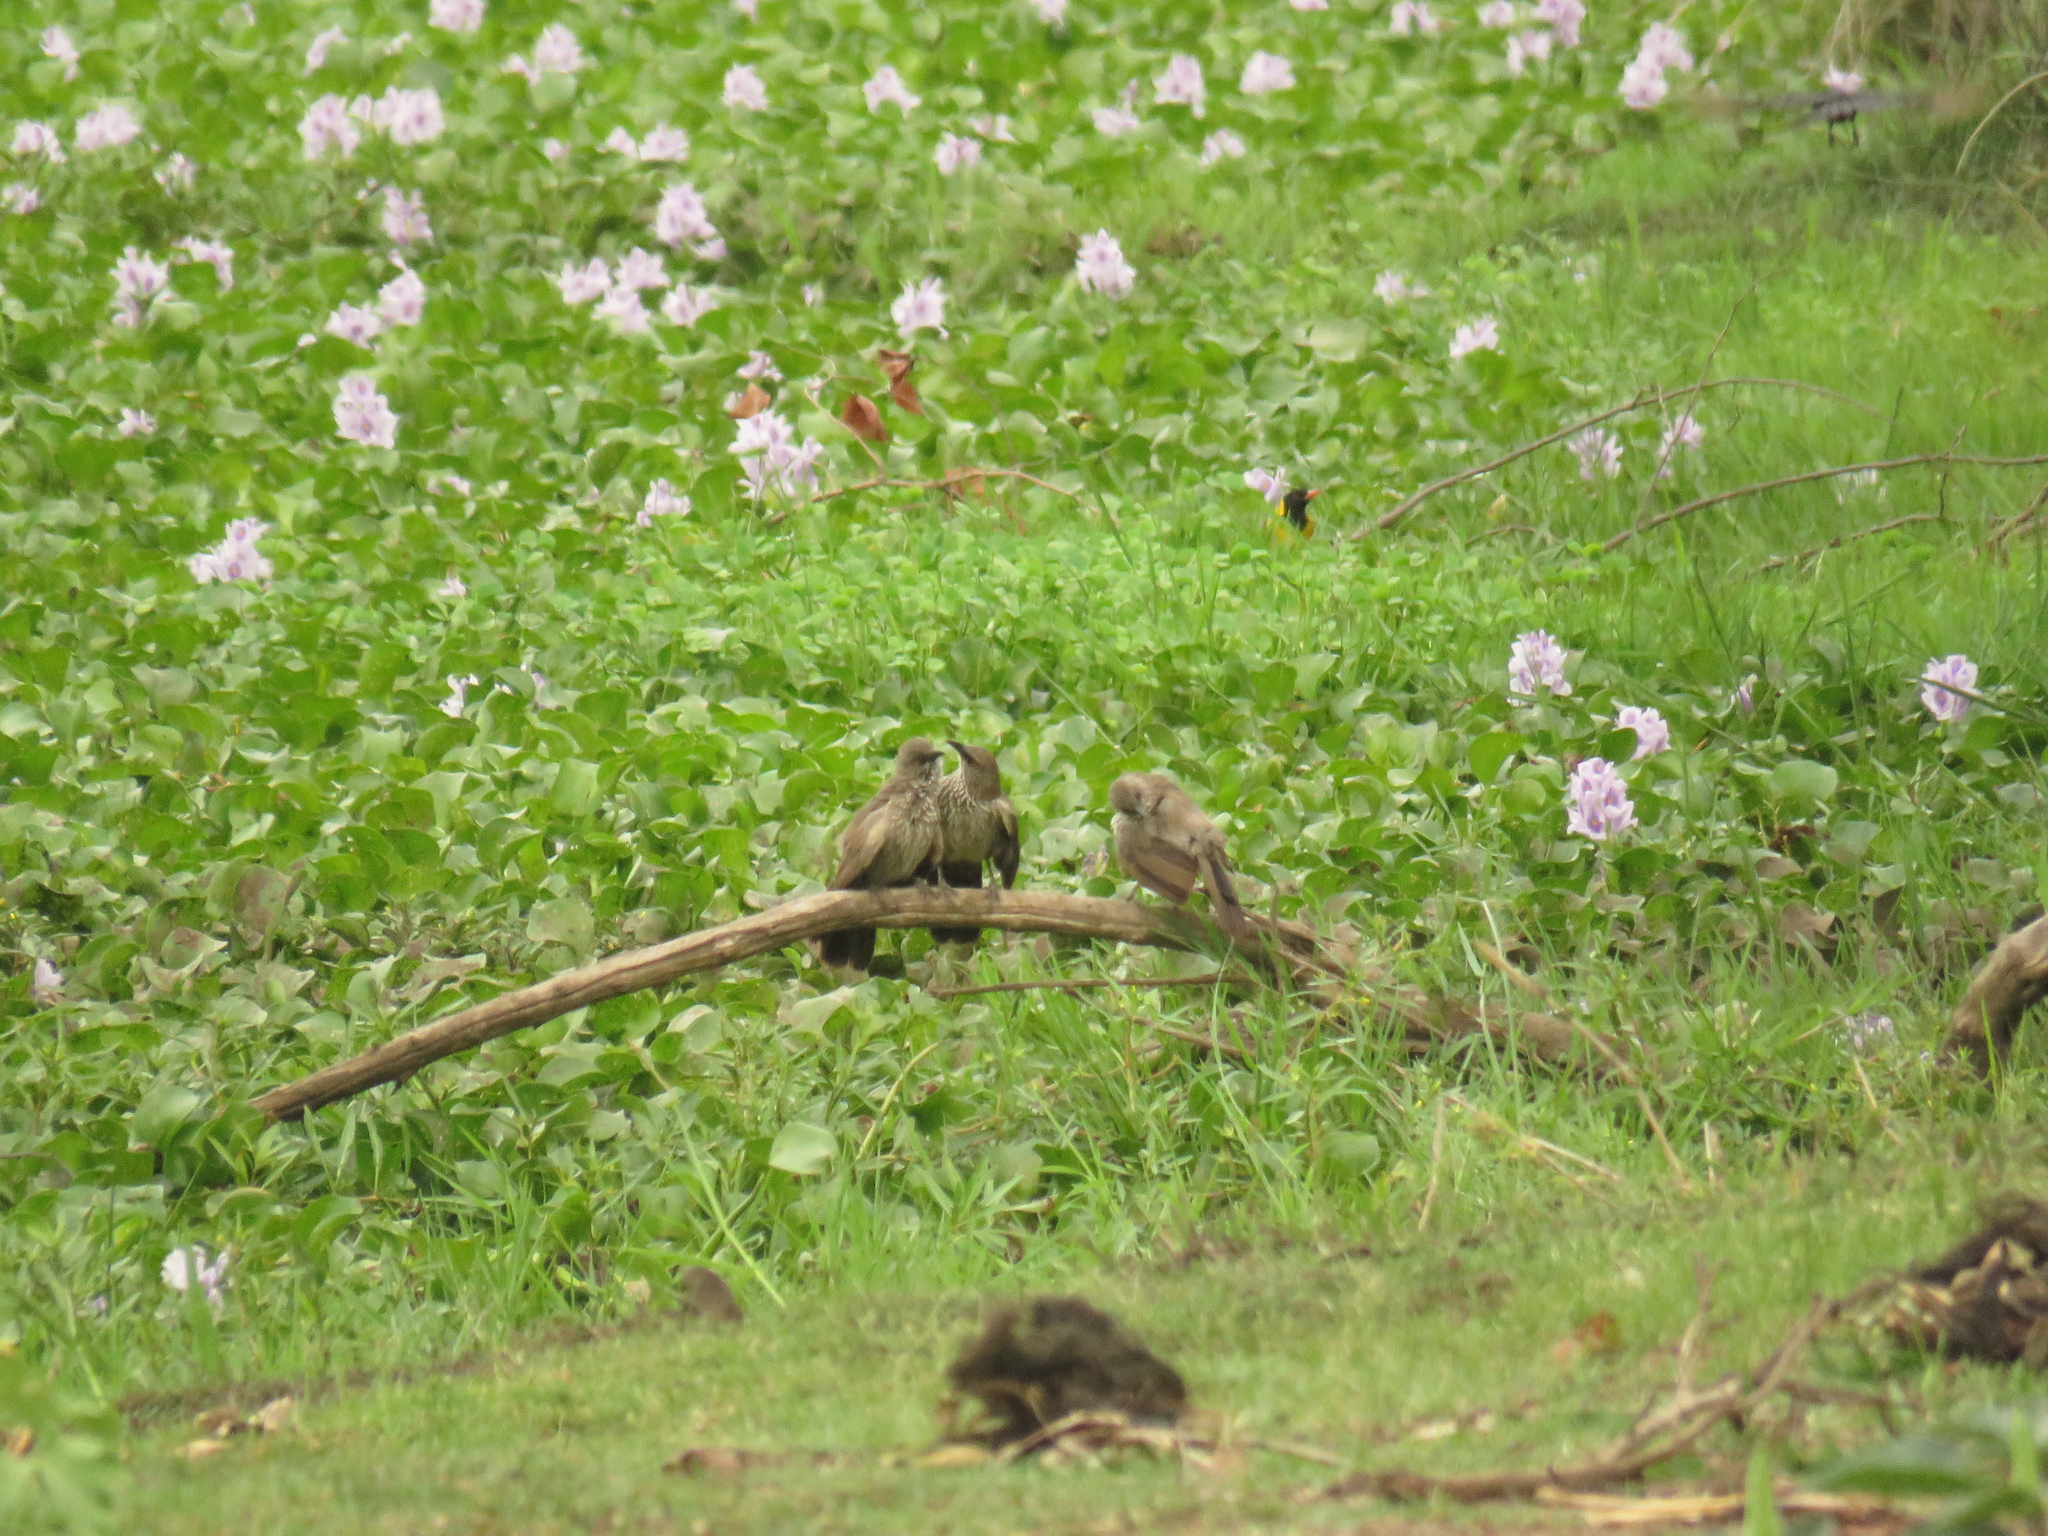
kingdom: Animalia
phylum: Chordata
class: Aves
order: Passeriformes
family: Leiothrichidae
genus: Turdoides
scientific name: Turdoides jardineii
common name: Arrow-marked babbler
